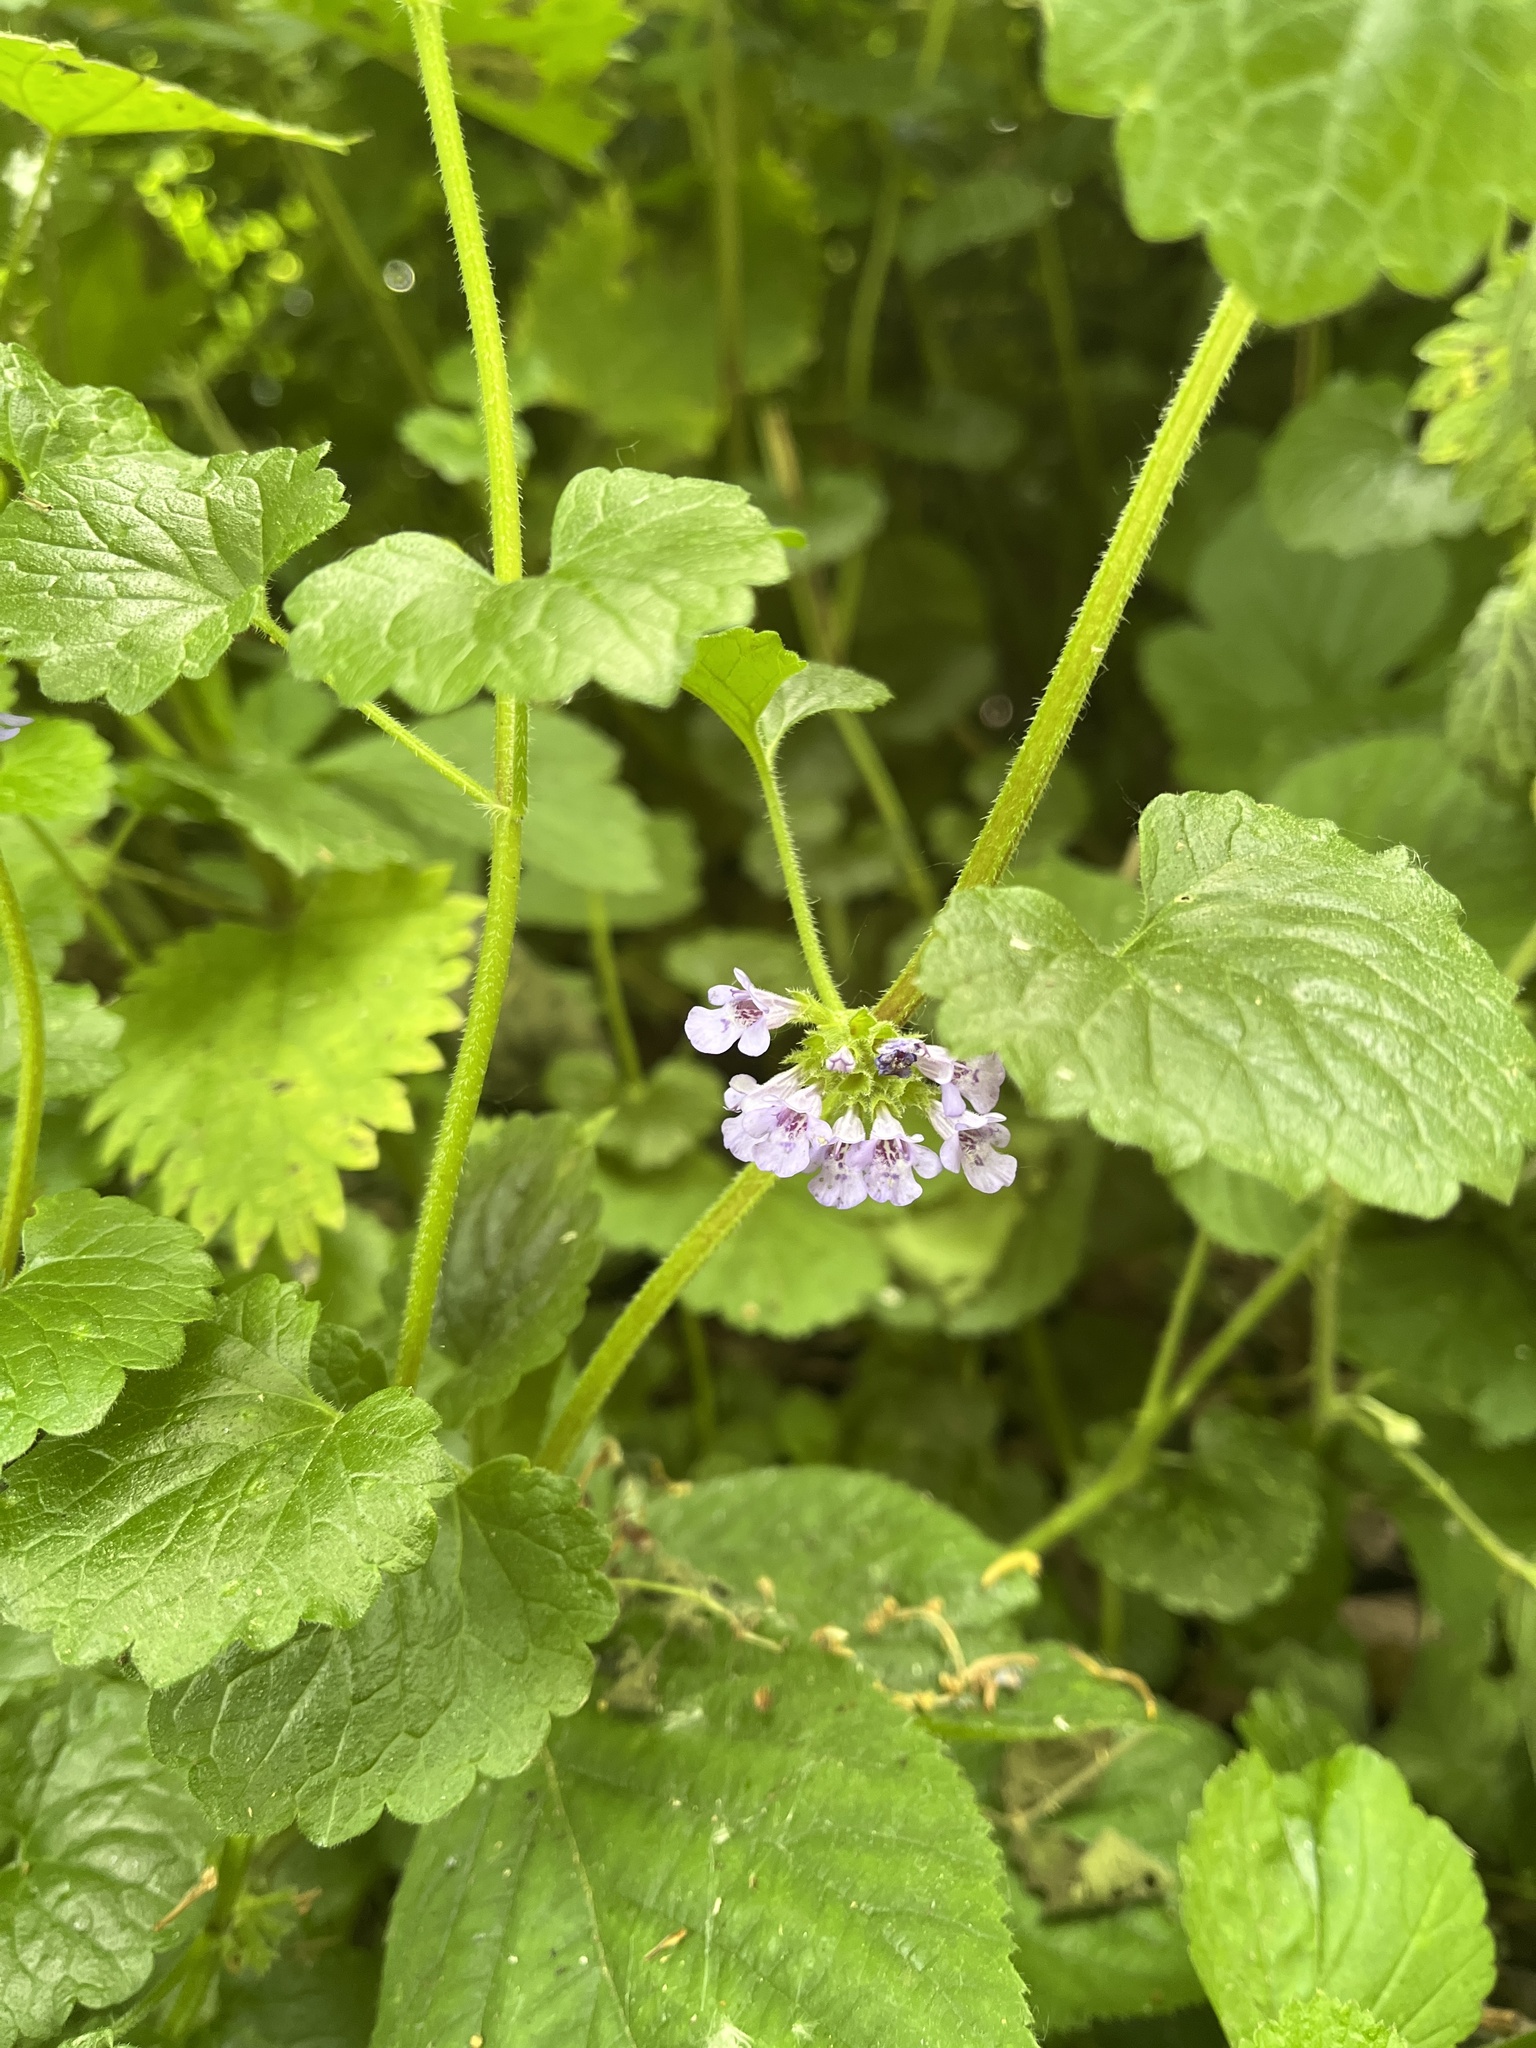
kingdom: Plantae
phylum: Tracheophyta
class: Magnoliopsida
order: Lamiales
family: Lamiaceae
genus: Glechoma
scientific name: Glechoma hederacea
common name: Ground ivy
